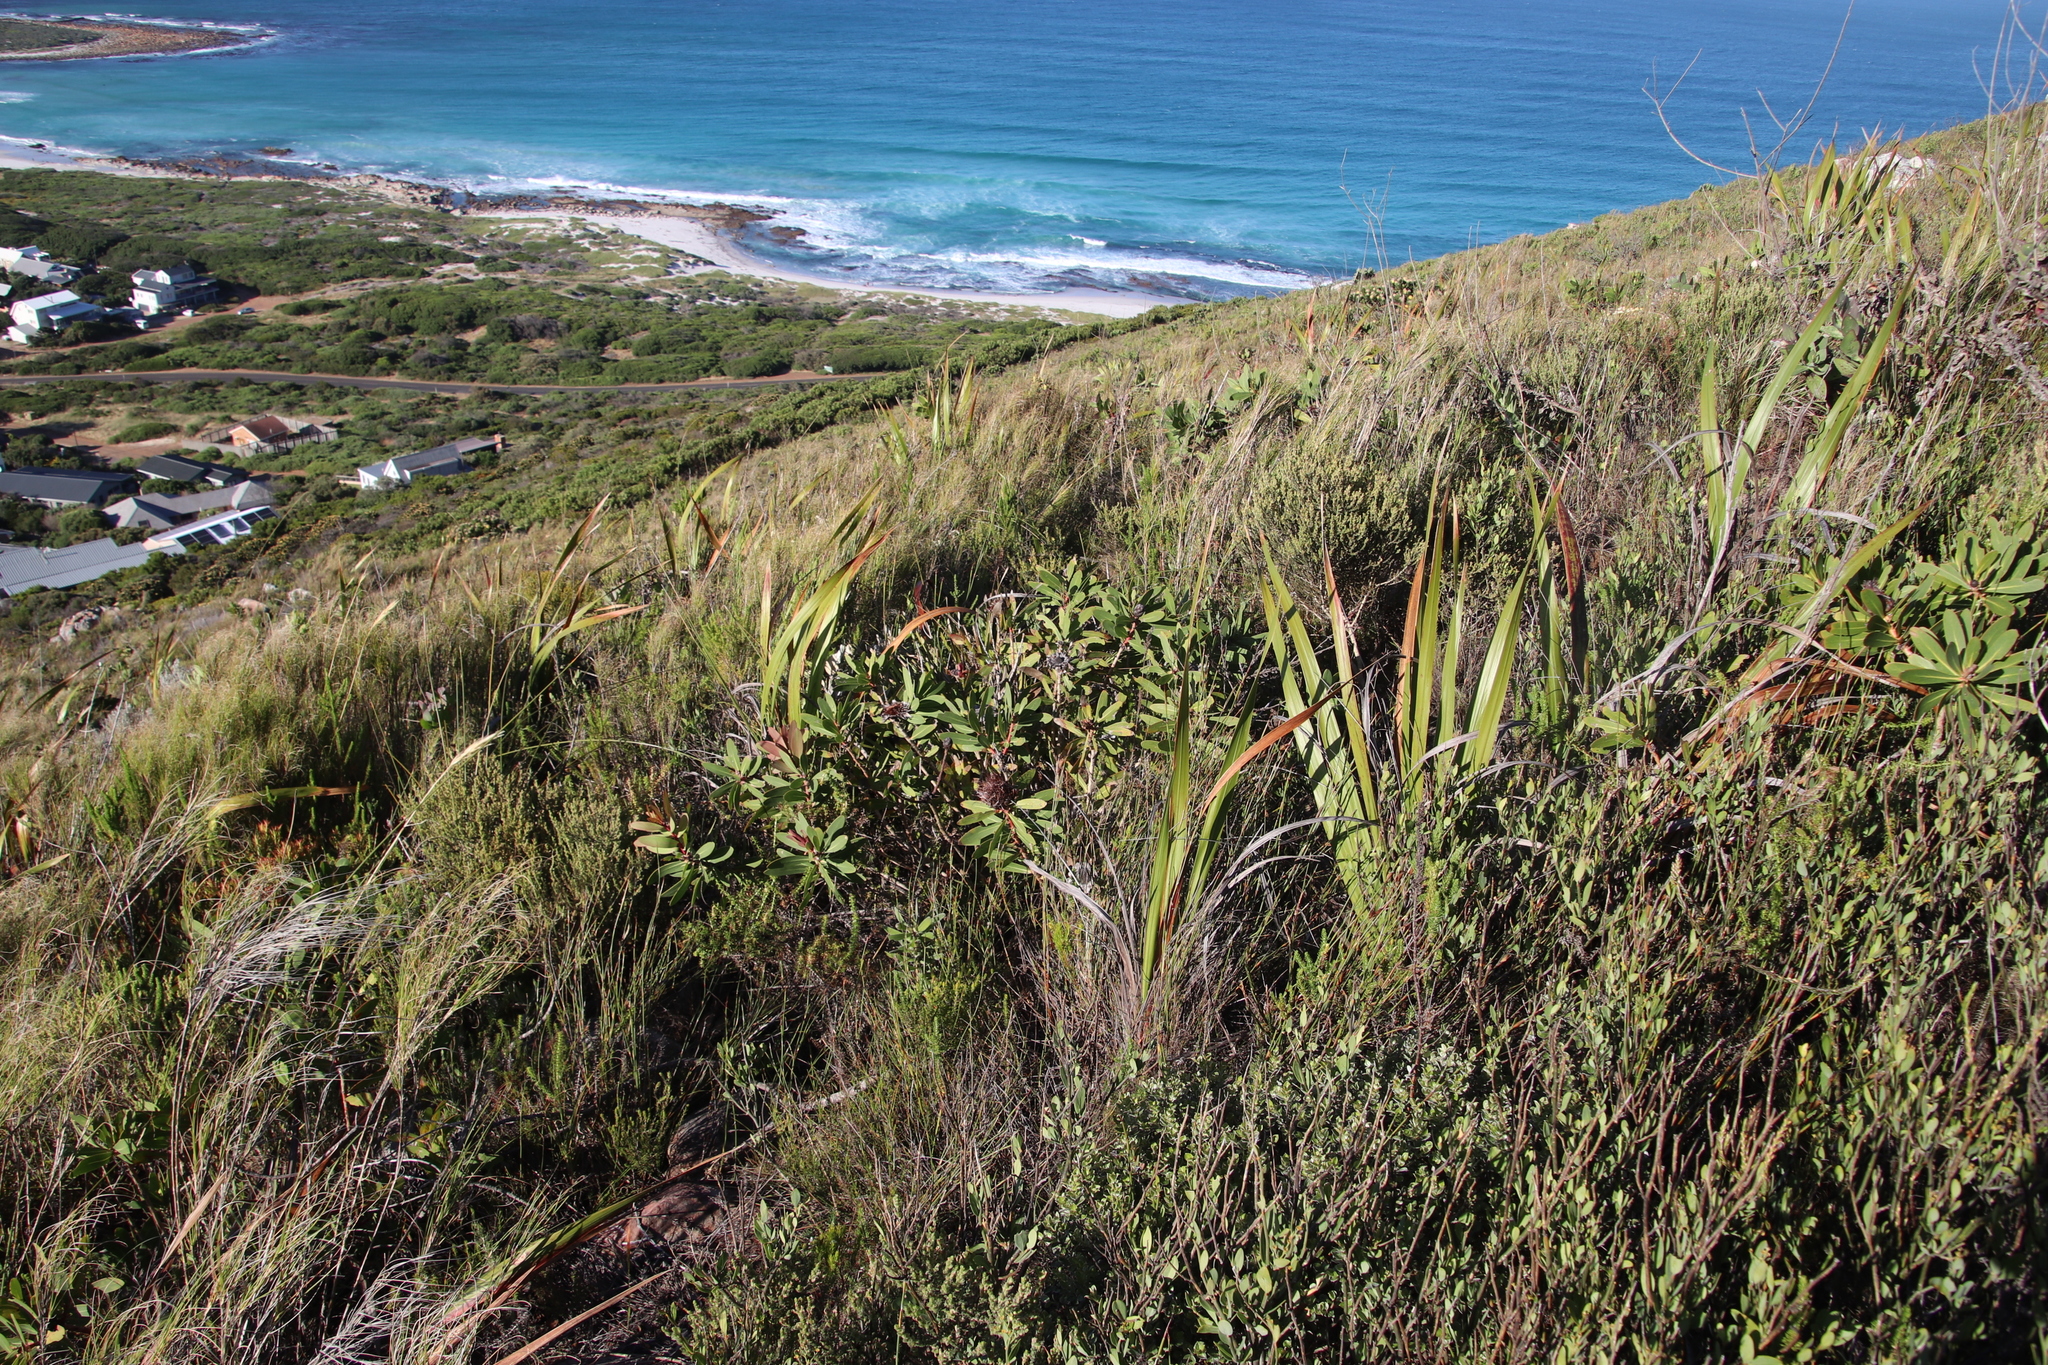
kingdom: Plantae
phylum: Tracheophyta
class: Magnoliopsida
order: Proteales
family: Proteaceae
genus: Protea
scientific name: Protea nitida
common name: Tree protea
